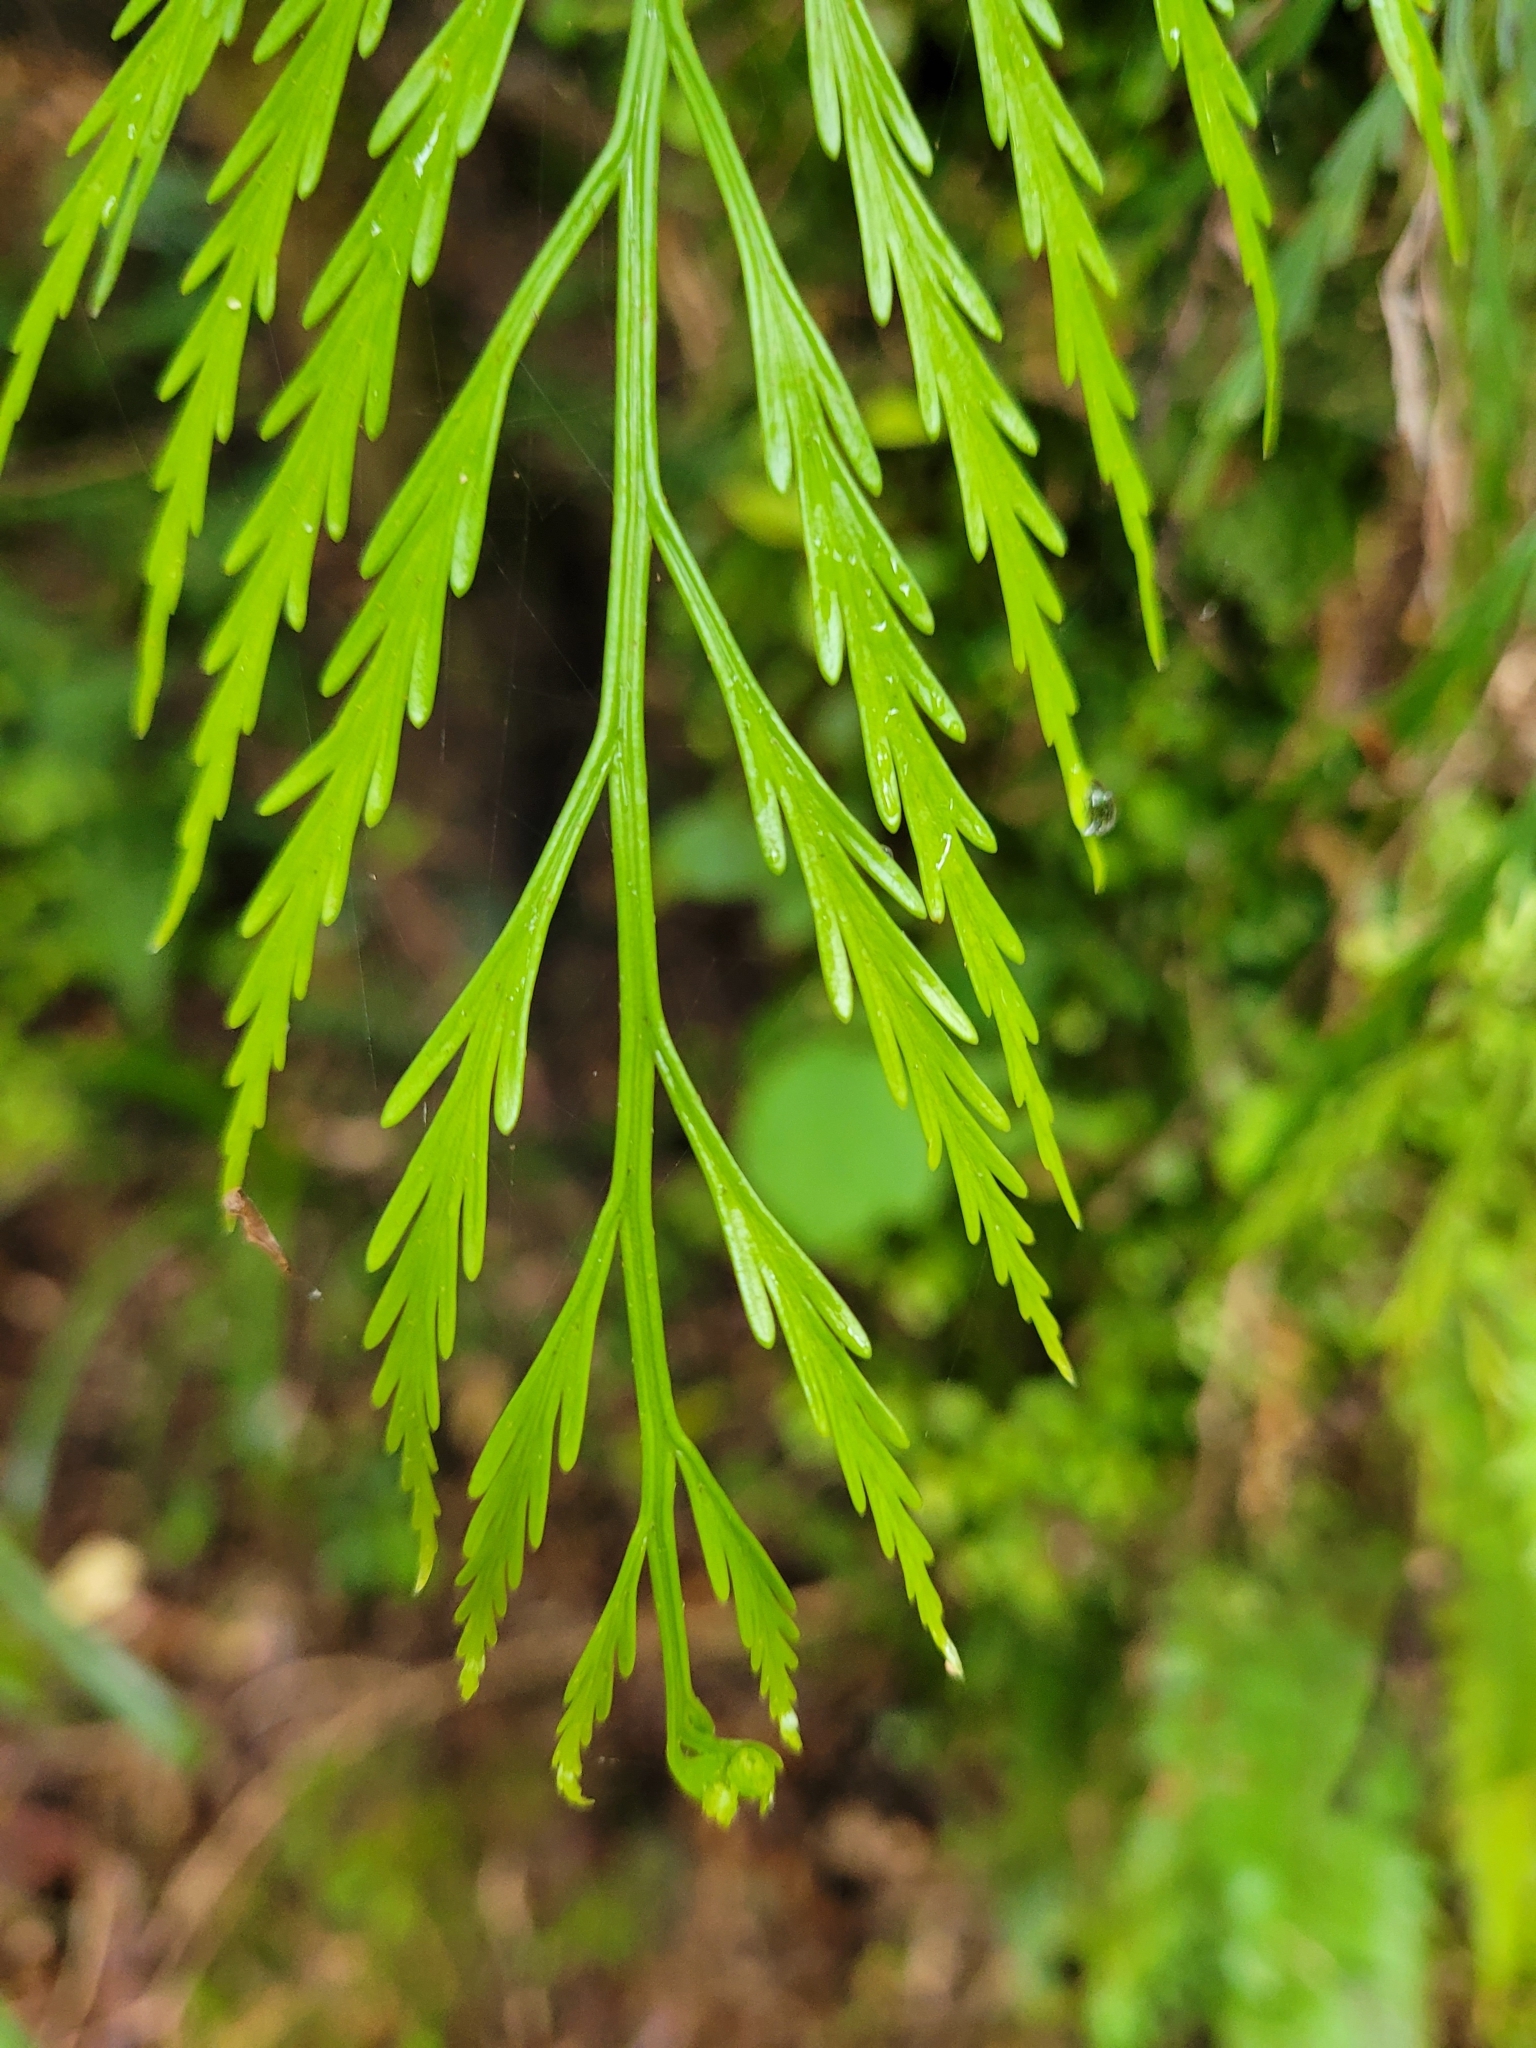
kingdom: Plantae
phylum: Tracheophyta
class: Polypodiopsida
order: Polypodiales
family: Aspleniaceae
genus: Asplenium
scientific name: Asplenium flaccidum
